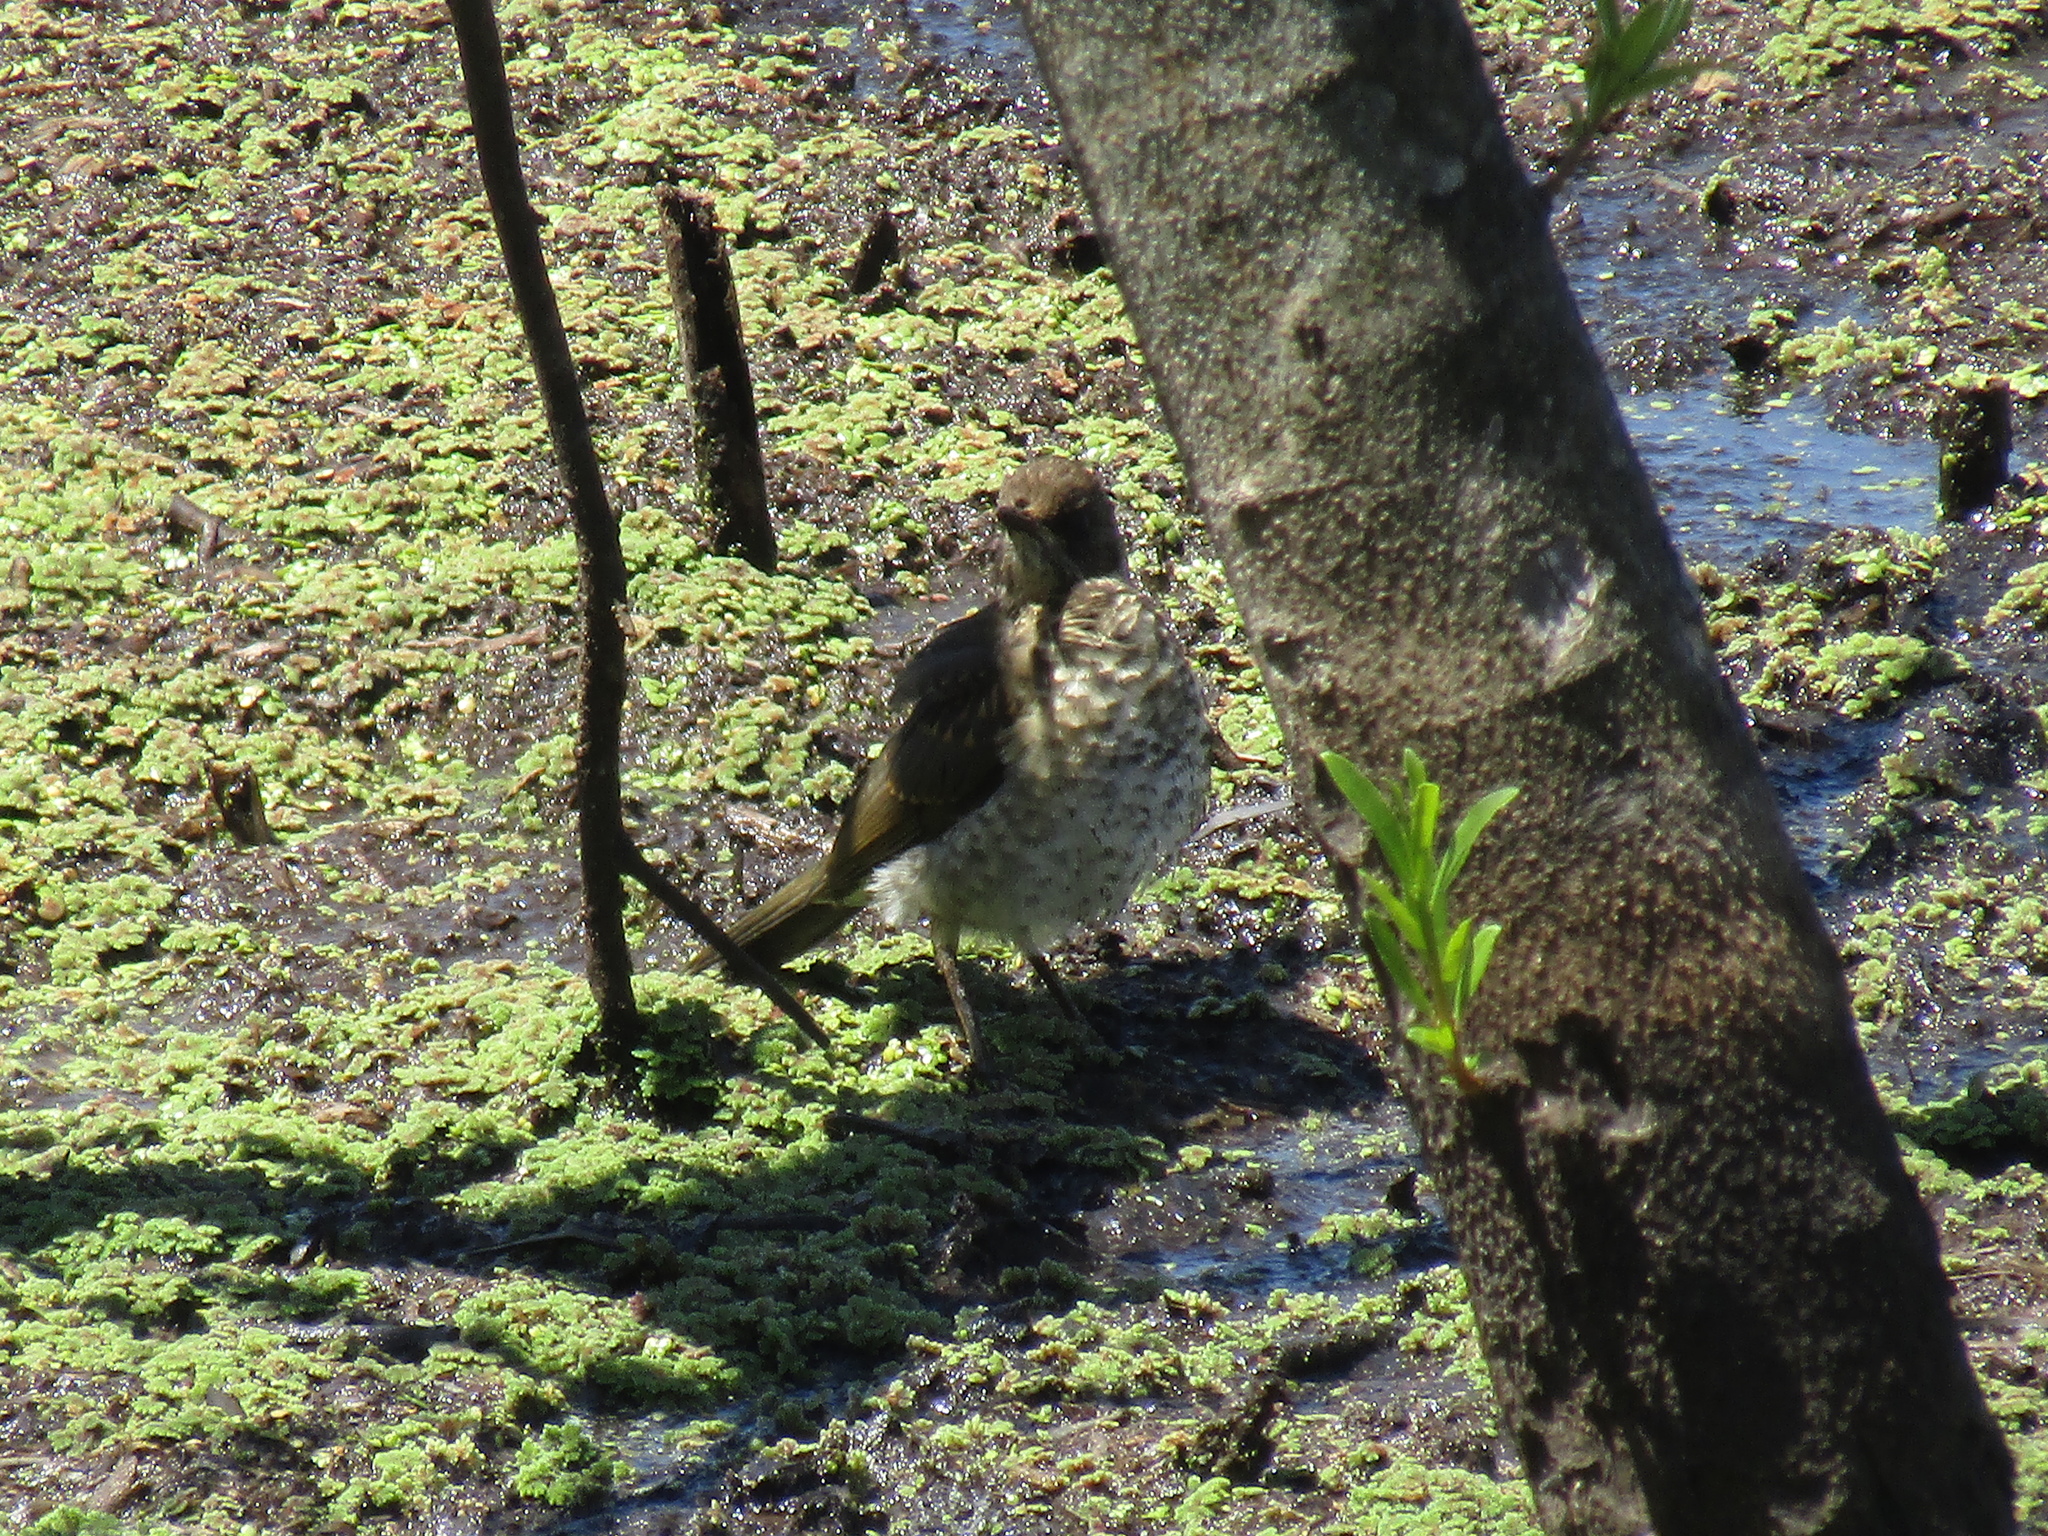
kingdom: Animalia
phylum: Chordata
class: Aves
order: Passeriformes
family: Turdidae
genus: Turdus
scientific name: Turdus amaurochalinus
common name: Creamy-bellied thrush
